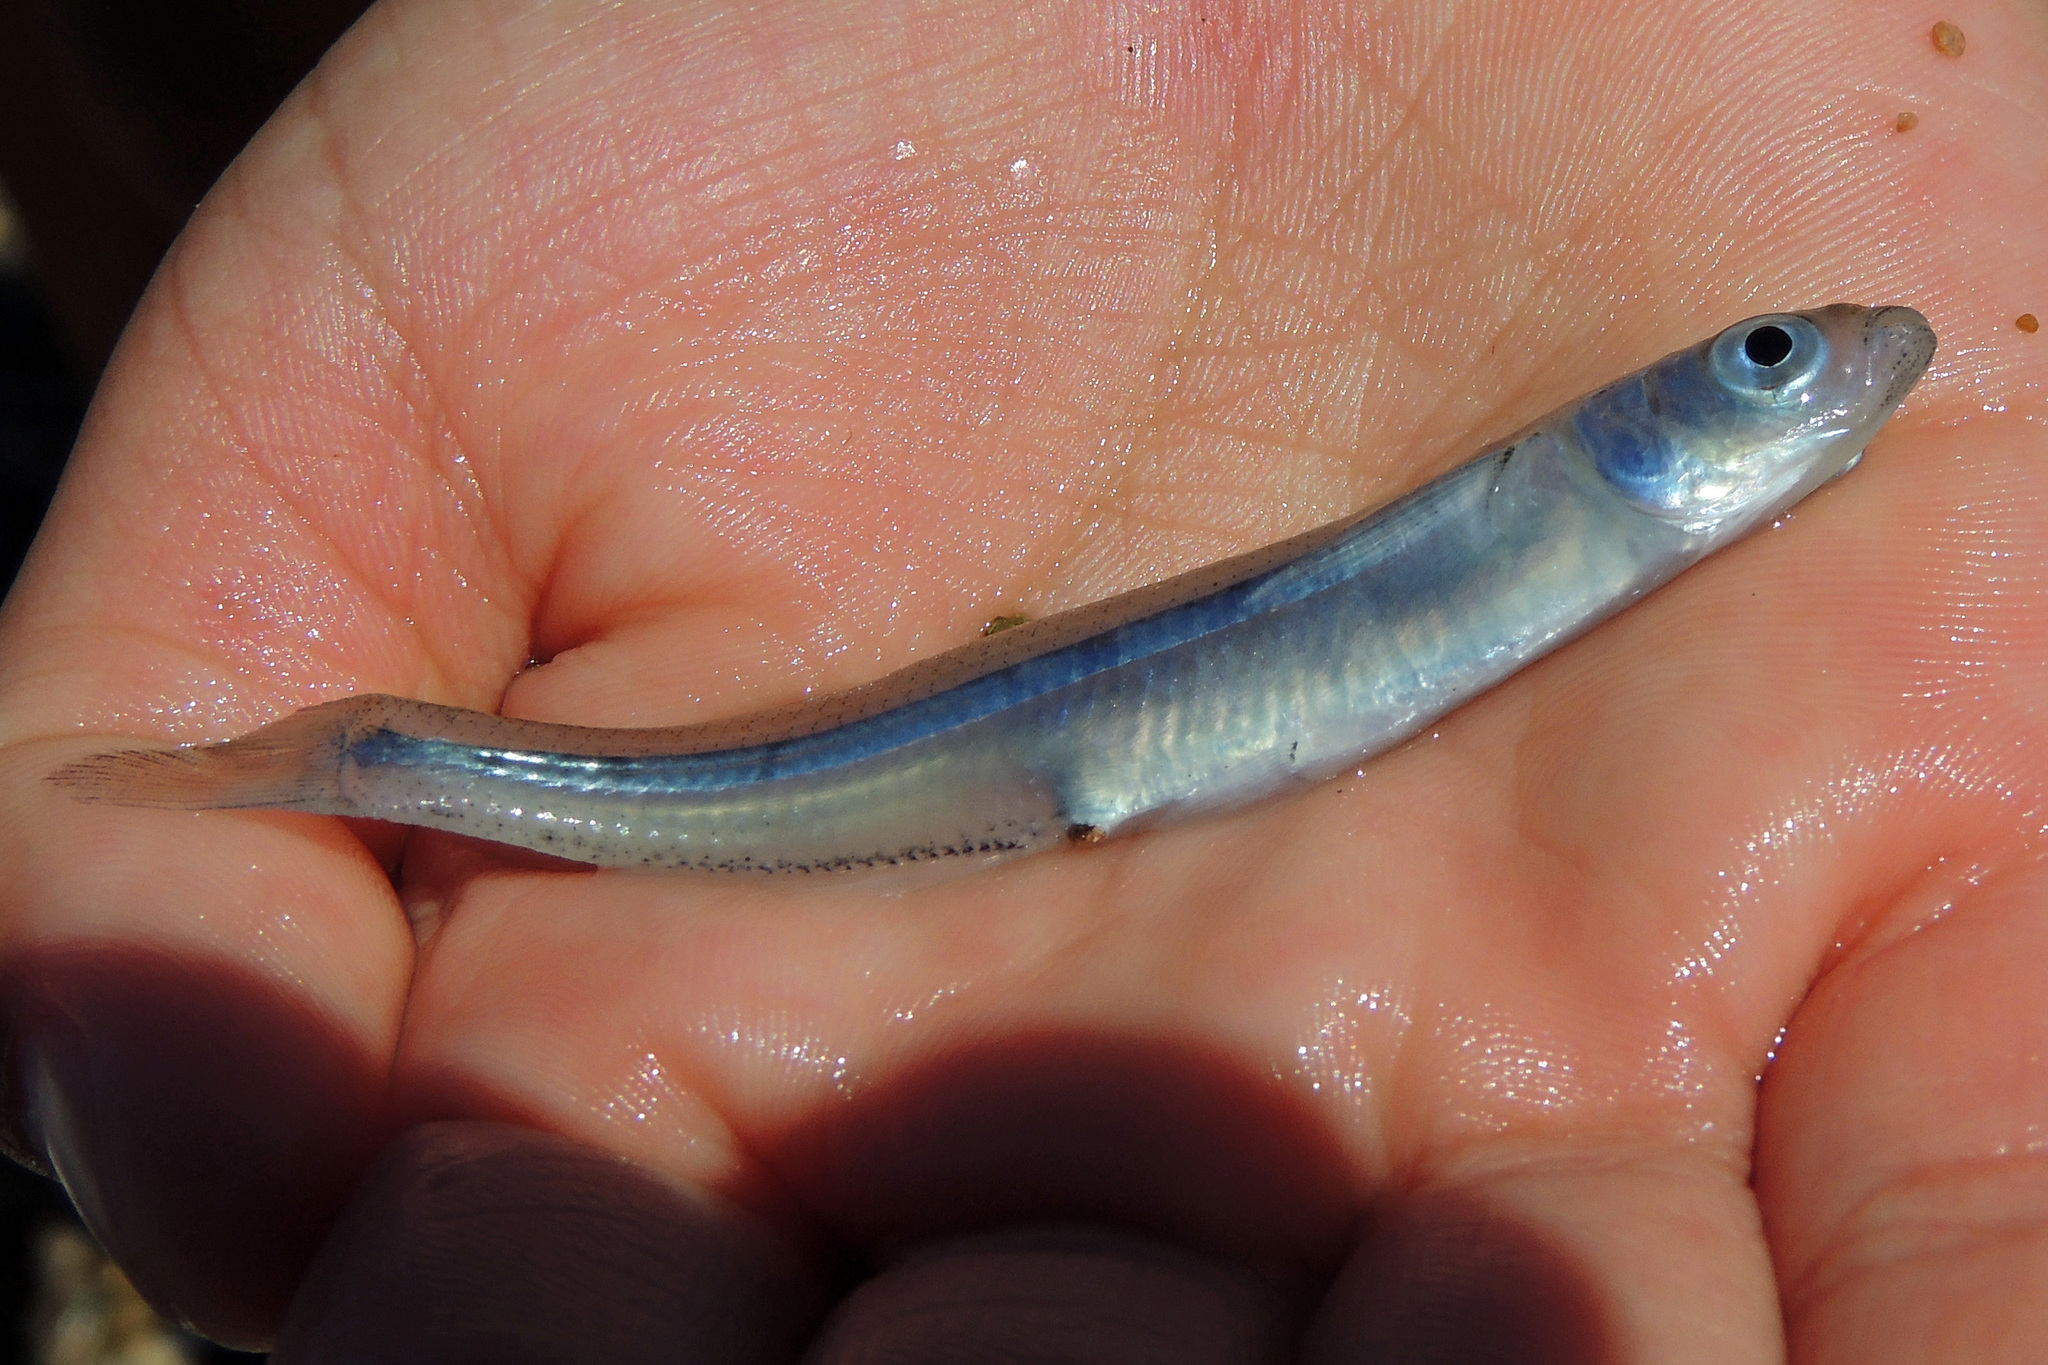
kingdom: Animalia
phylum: Chordata
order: Atheriniformes
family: Atherinopsidae
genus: Odontesthes
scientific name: Odontesthes incisa
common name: Silverside
